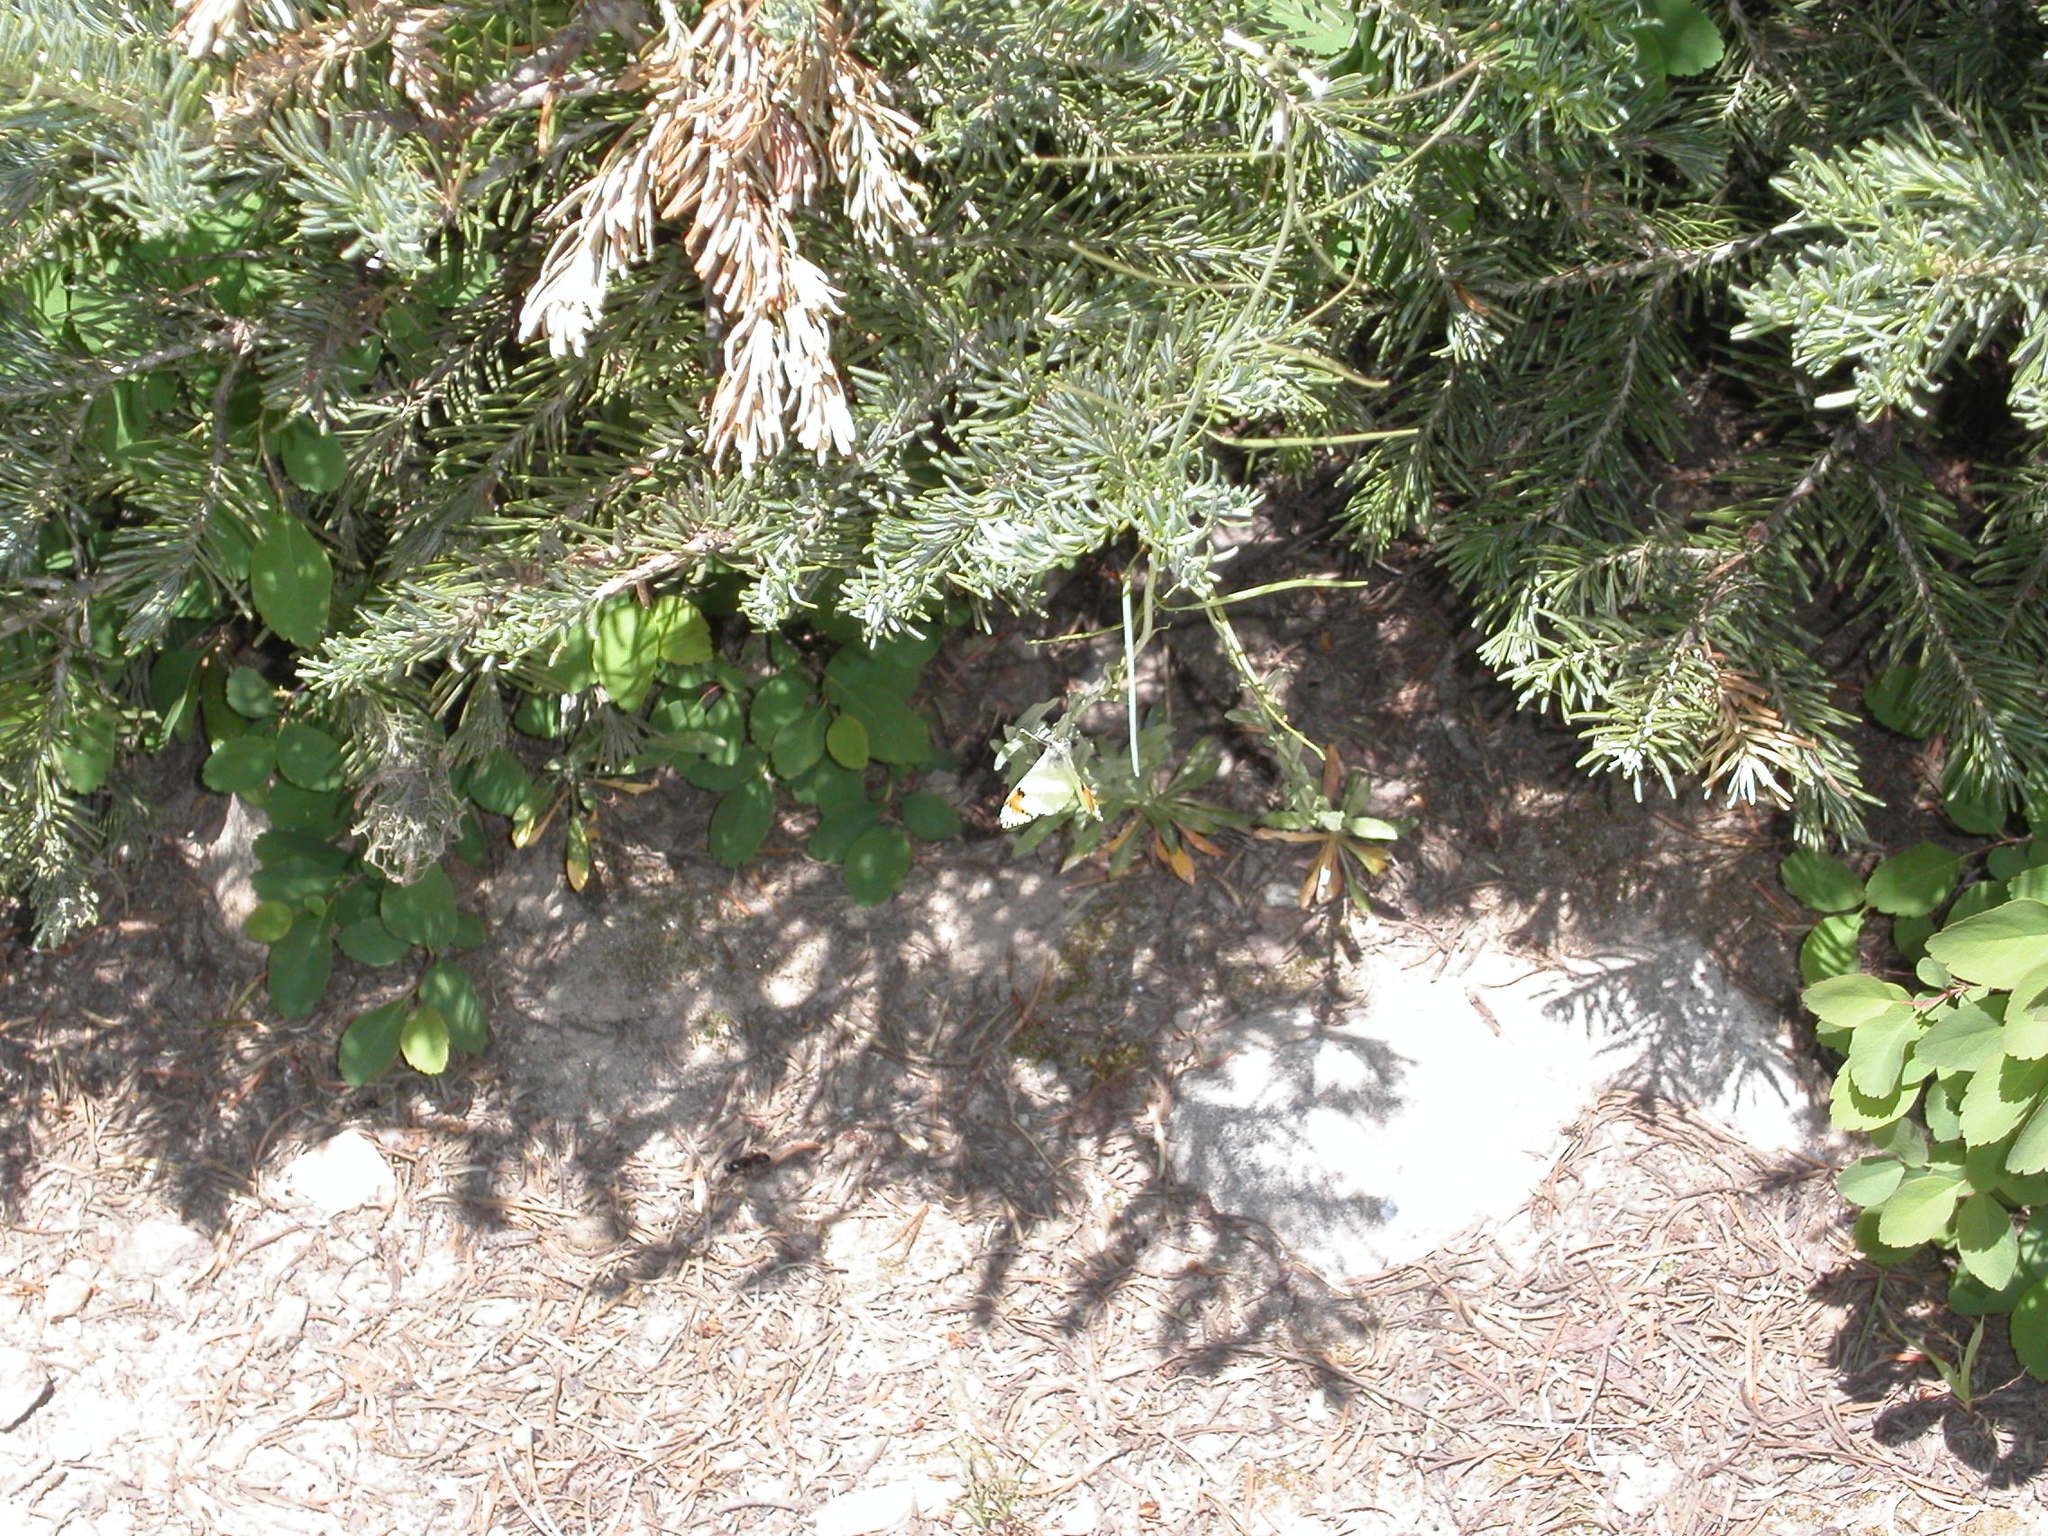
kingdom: Animalia
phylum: Arthropoda
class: Insecta
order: Lepidoptera
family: Pieridae
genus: Anthocharis
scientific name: Anthocharis julia
